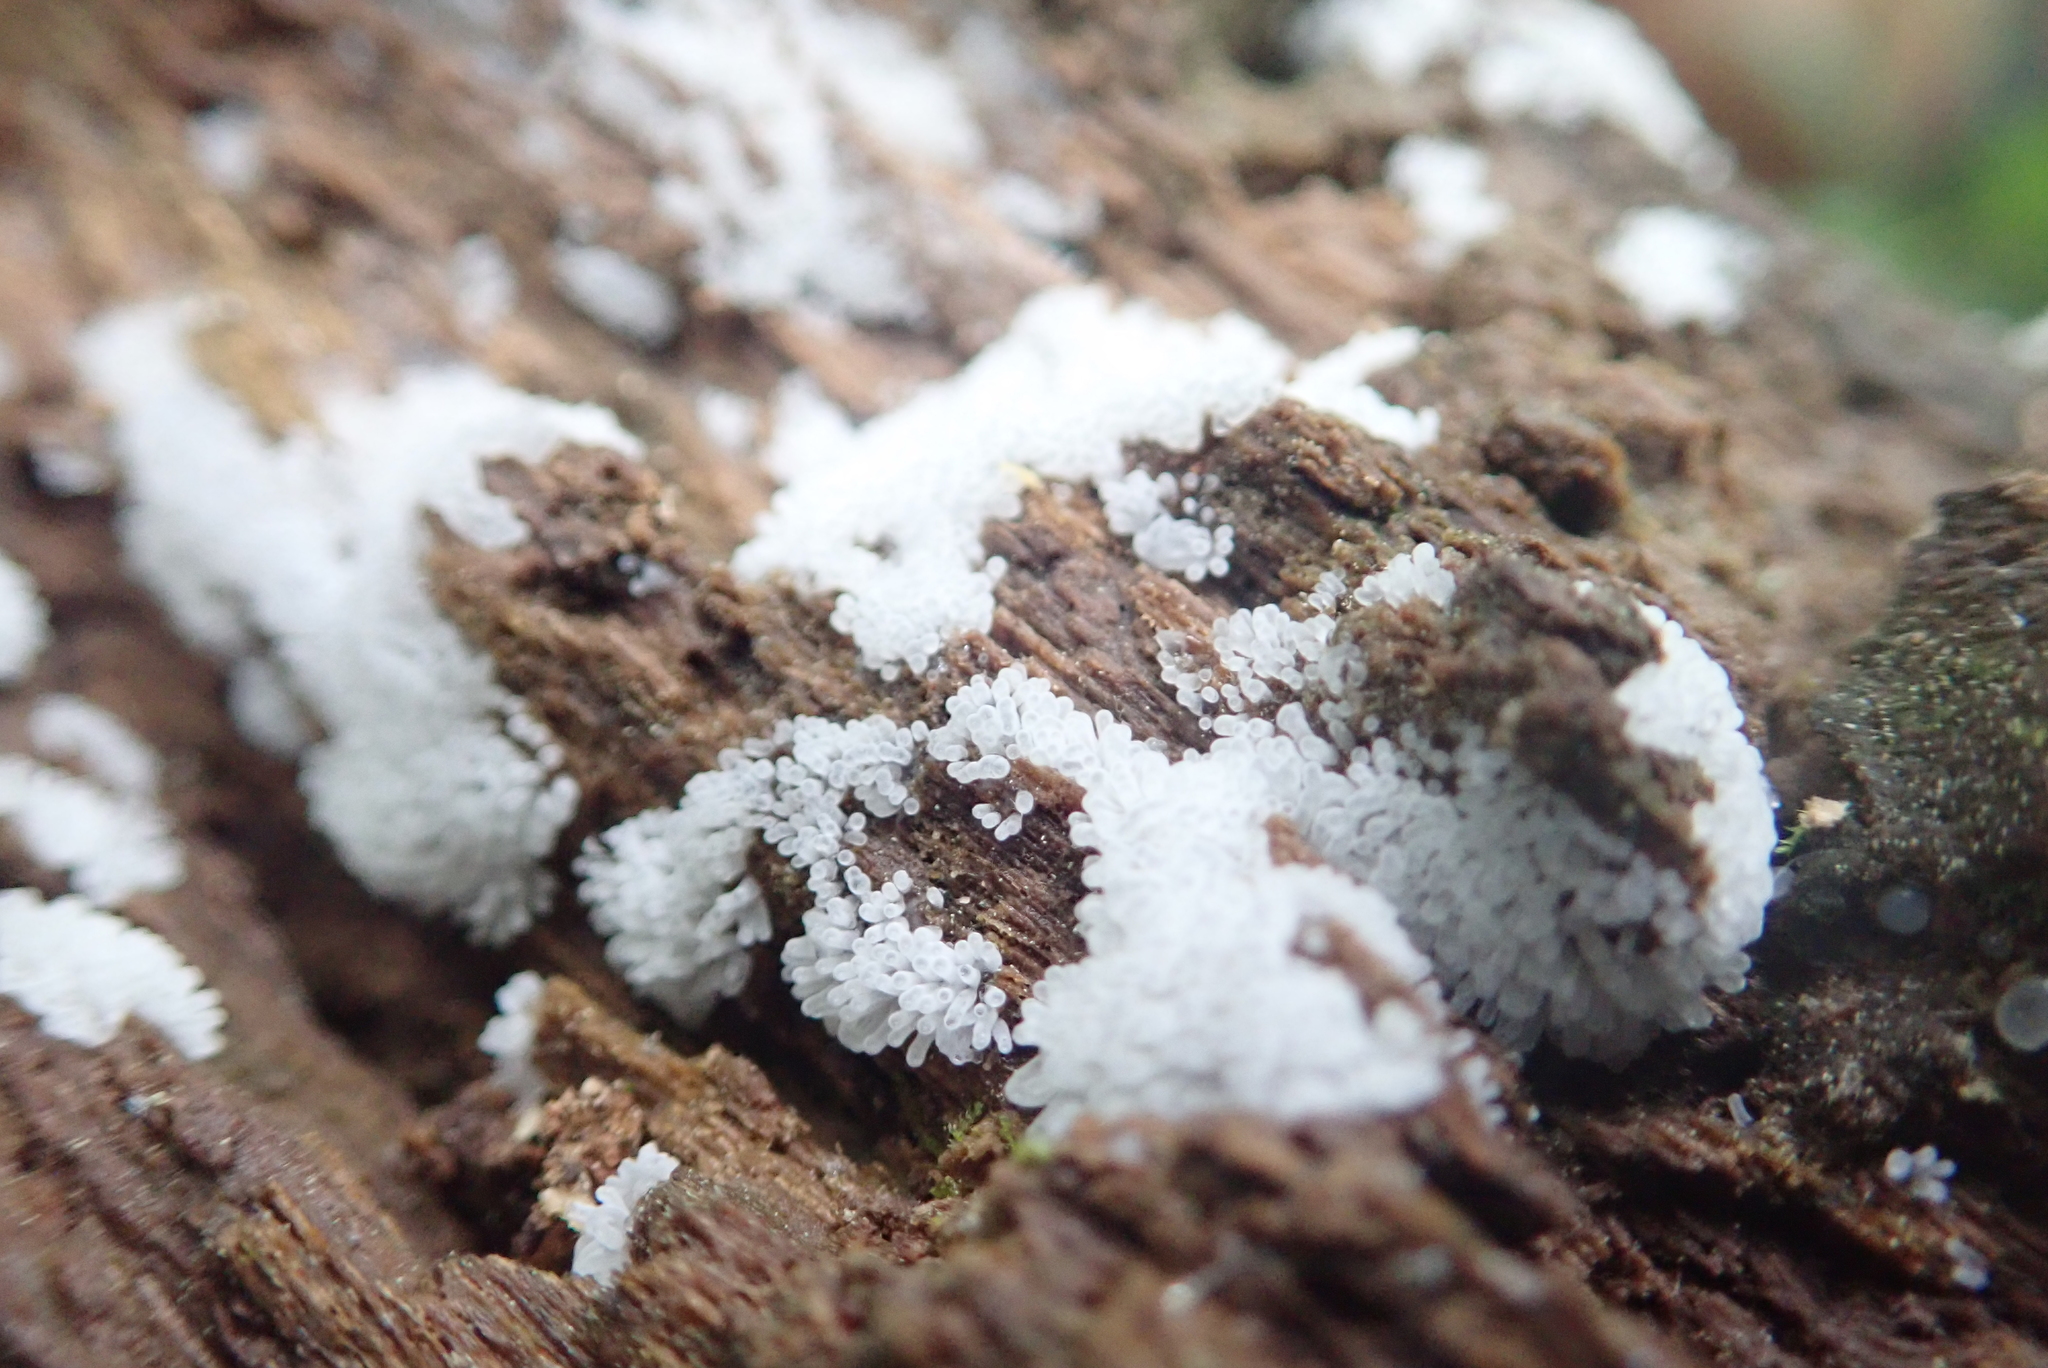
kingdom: Protozoa
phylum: Mycetozoa
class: Protosteliomycetes
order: Ceratiomyxales
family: Ceratiomyxaceae
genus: Ceratiomyxa
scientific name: Ceratiomyxa fruticulosa
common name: Honeycomb coral slime mold
